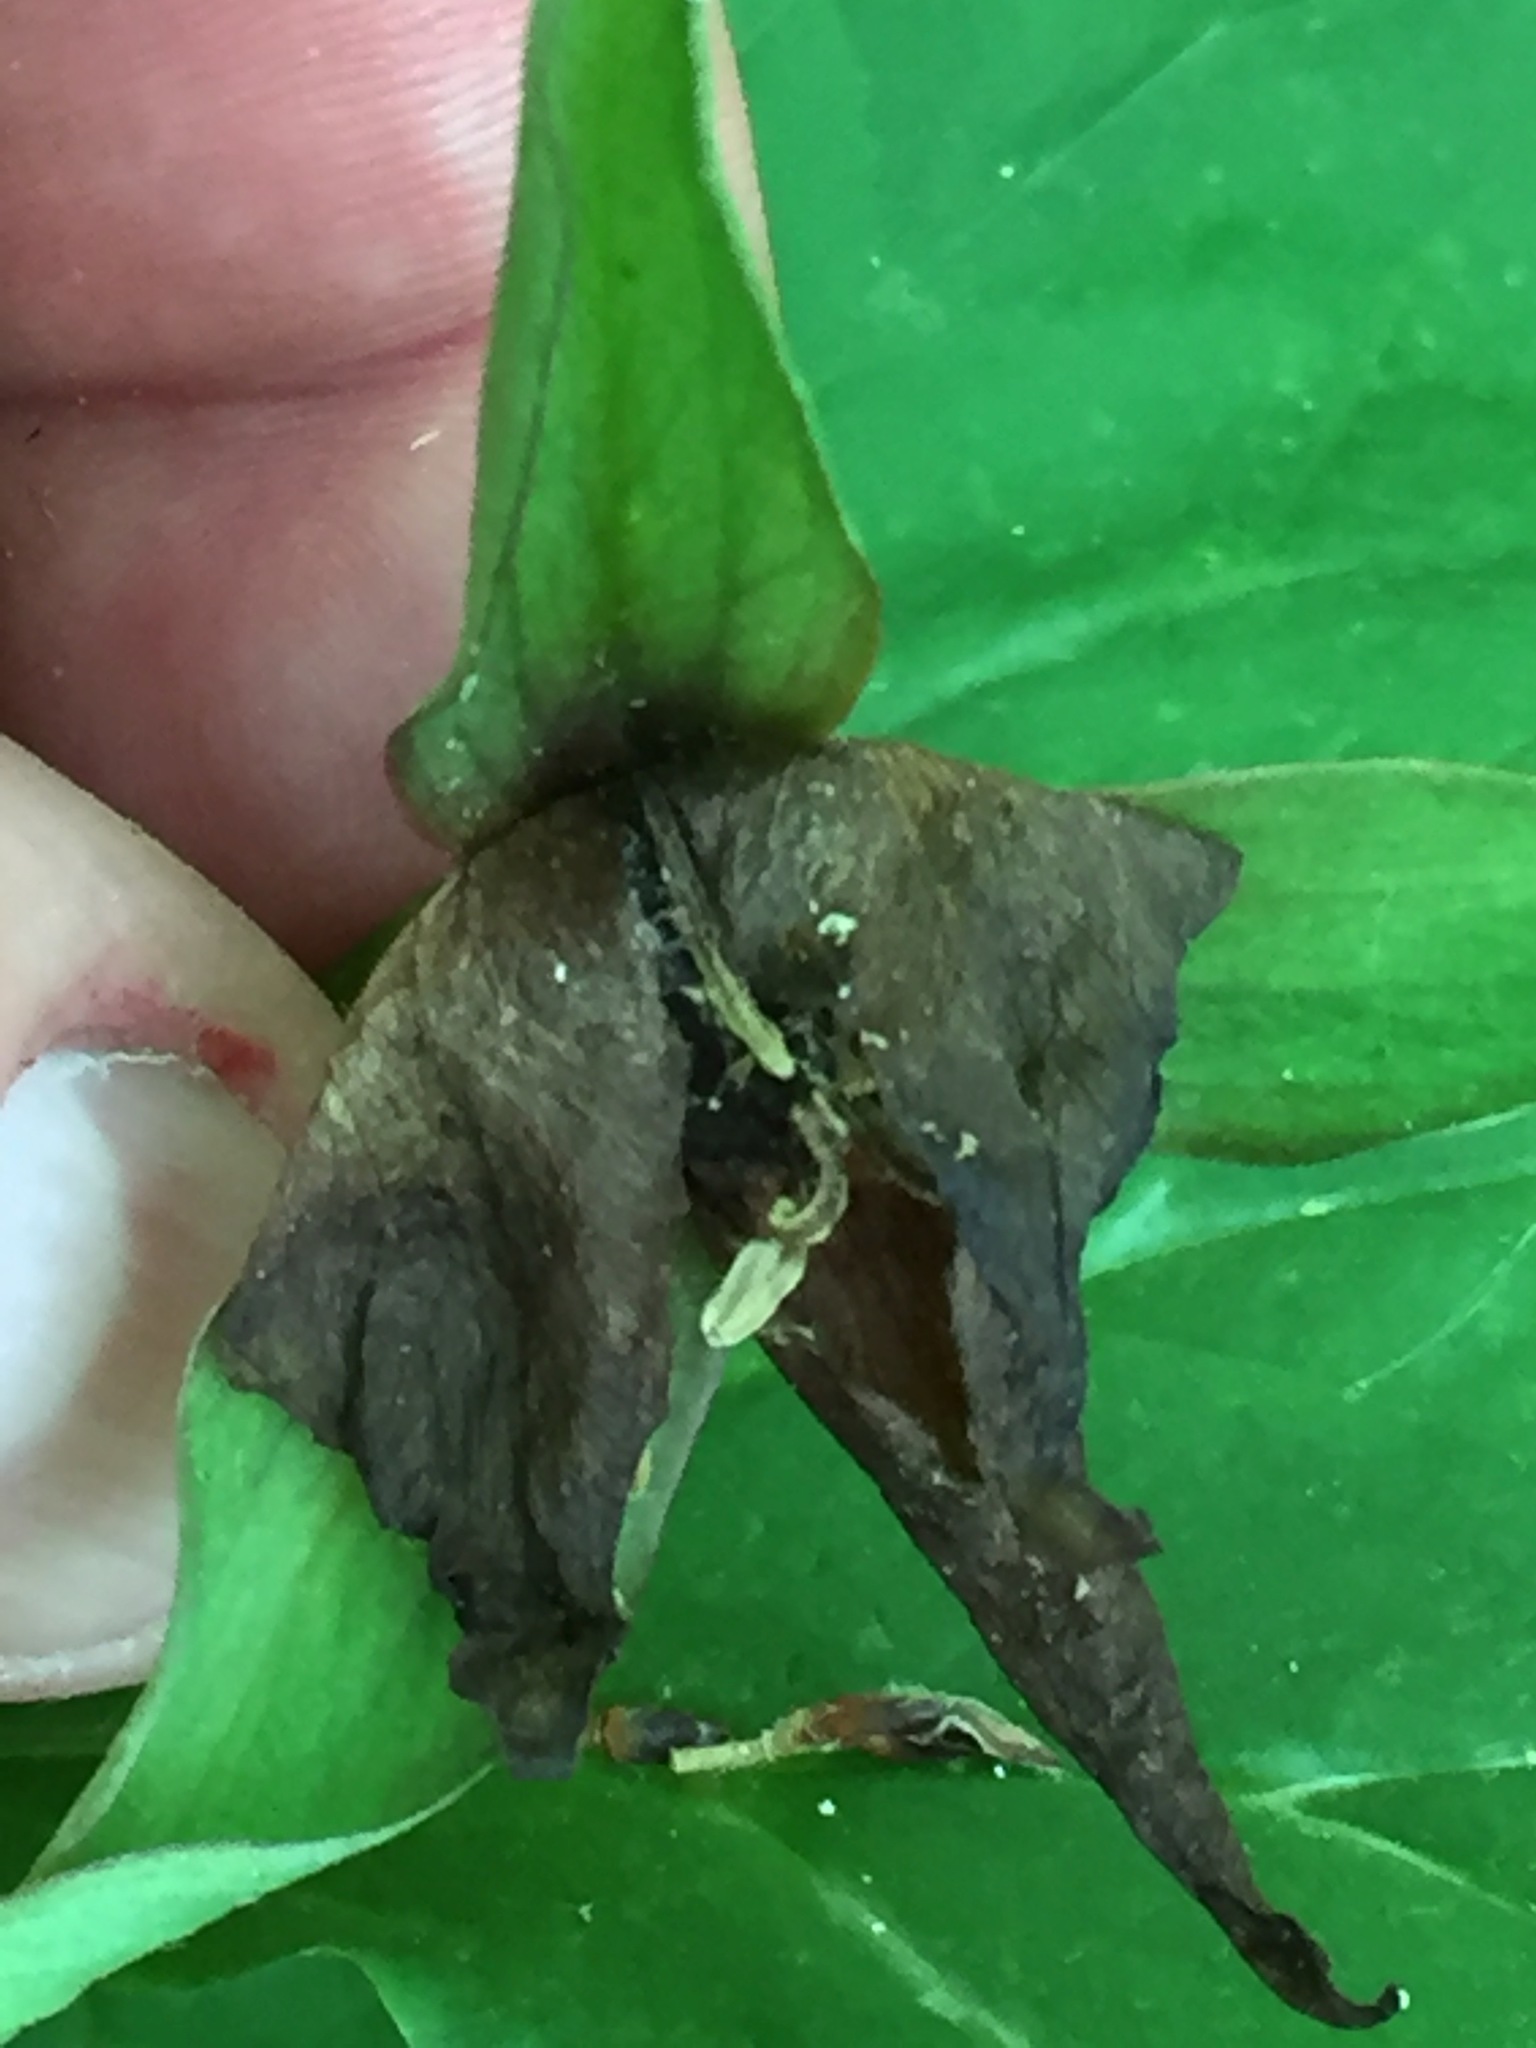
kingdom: Plantae
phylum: Tracheophyta
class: Liliopsida
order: Liliales
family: Melanthiaceae
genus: Trillium
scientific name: Trillium erectum
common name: Purple trillium
